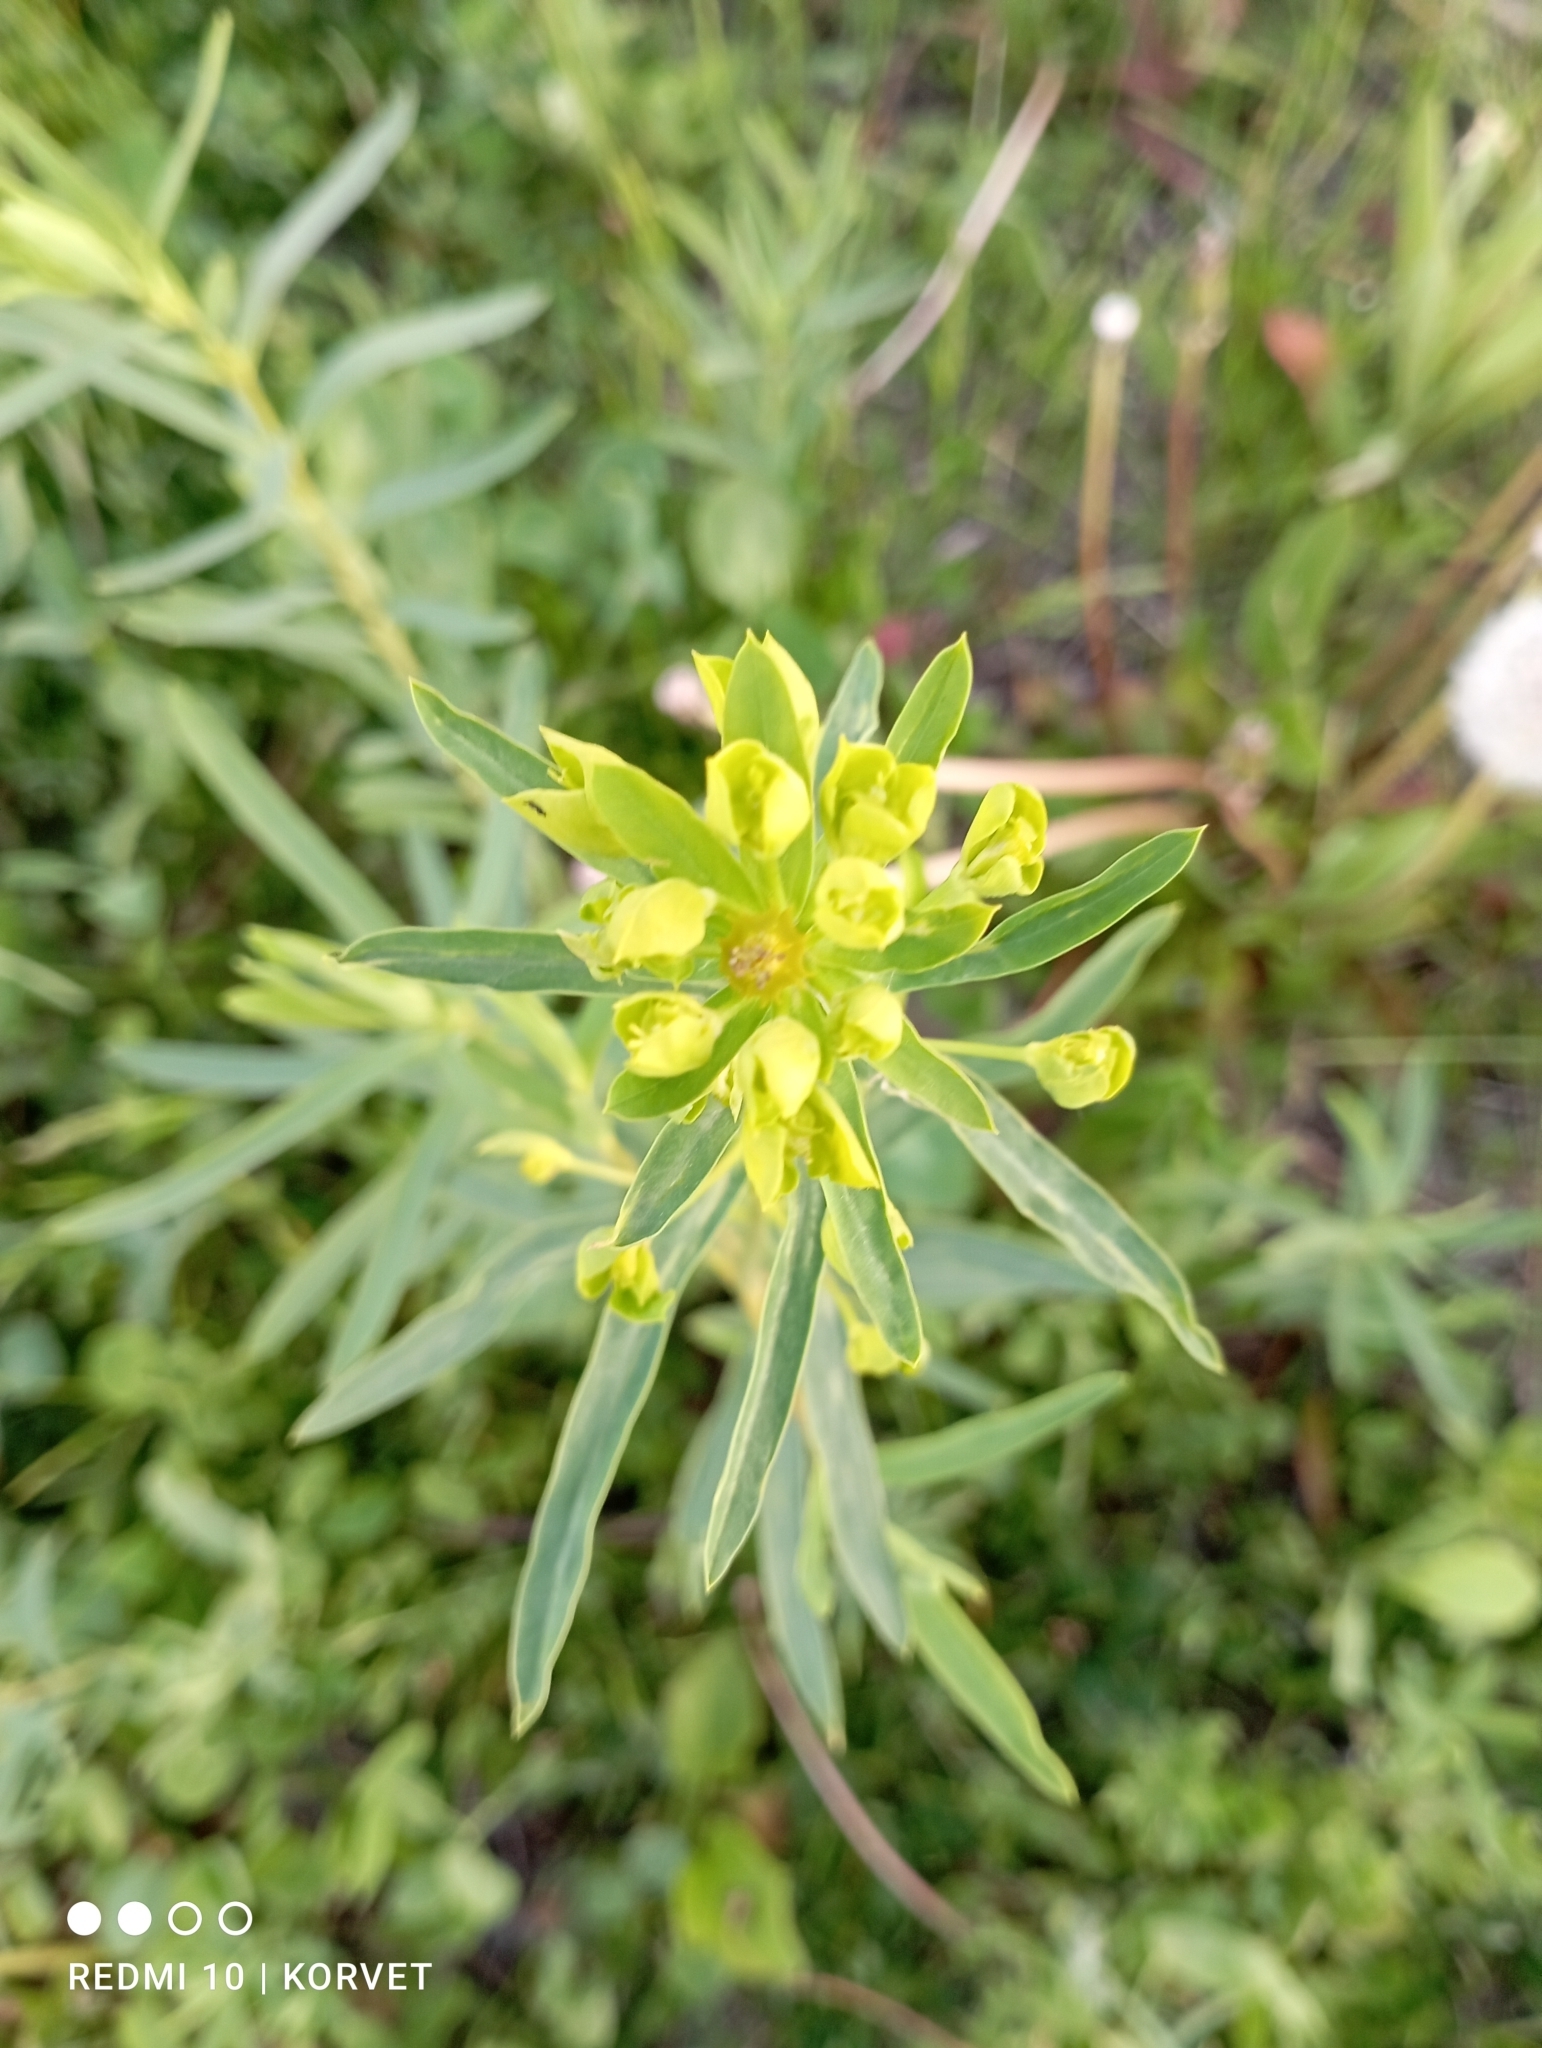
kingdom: Plantae
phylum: Tracheophyta
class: Magnoliopsida
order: Malpighiales
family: Euphorbiaceae
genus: Euphorbia
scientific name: Euphorbia virgata
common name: Leafy spurge
